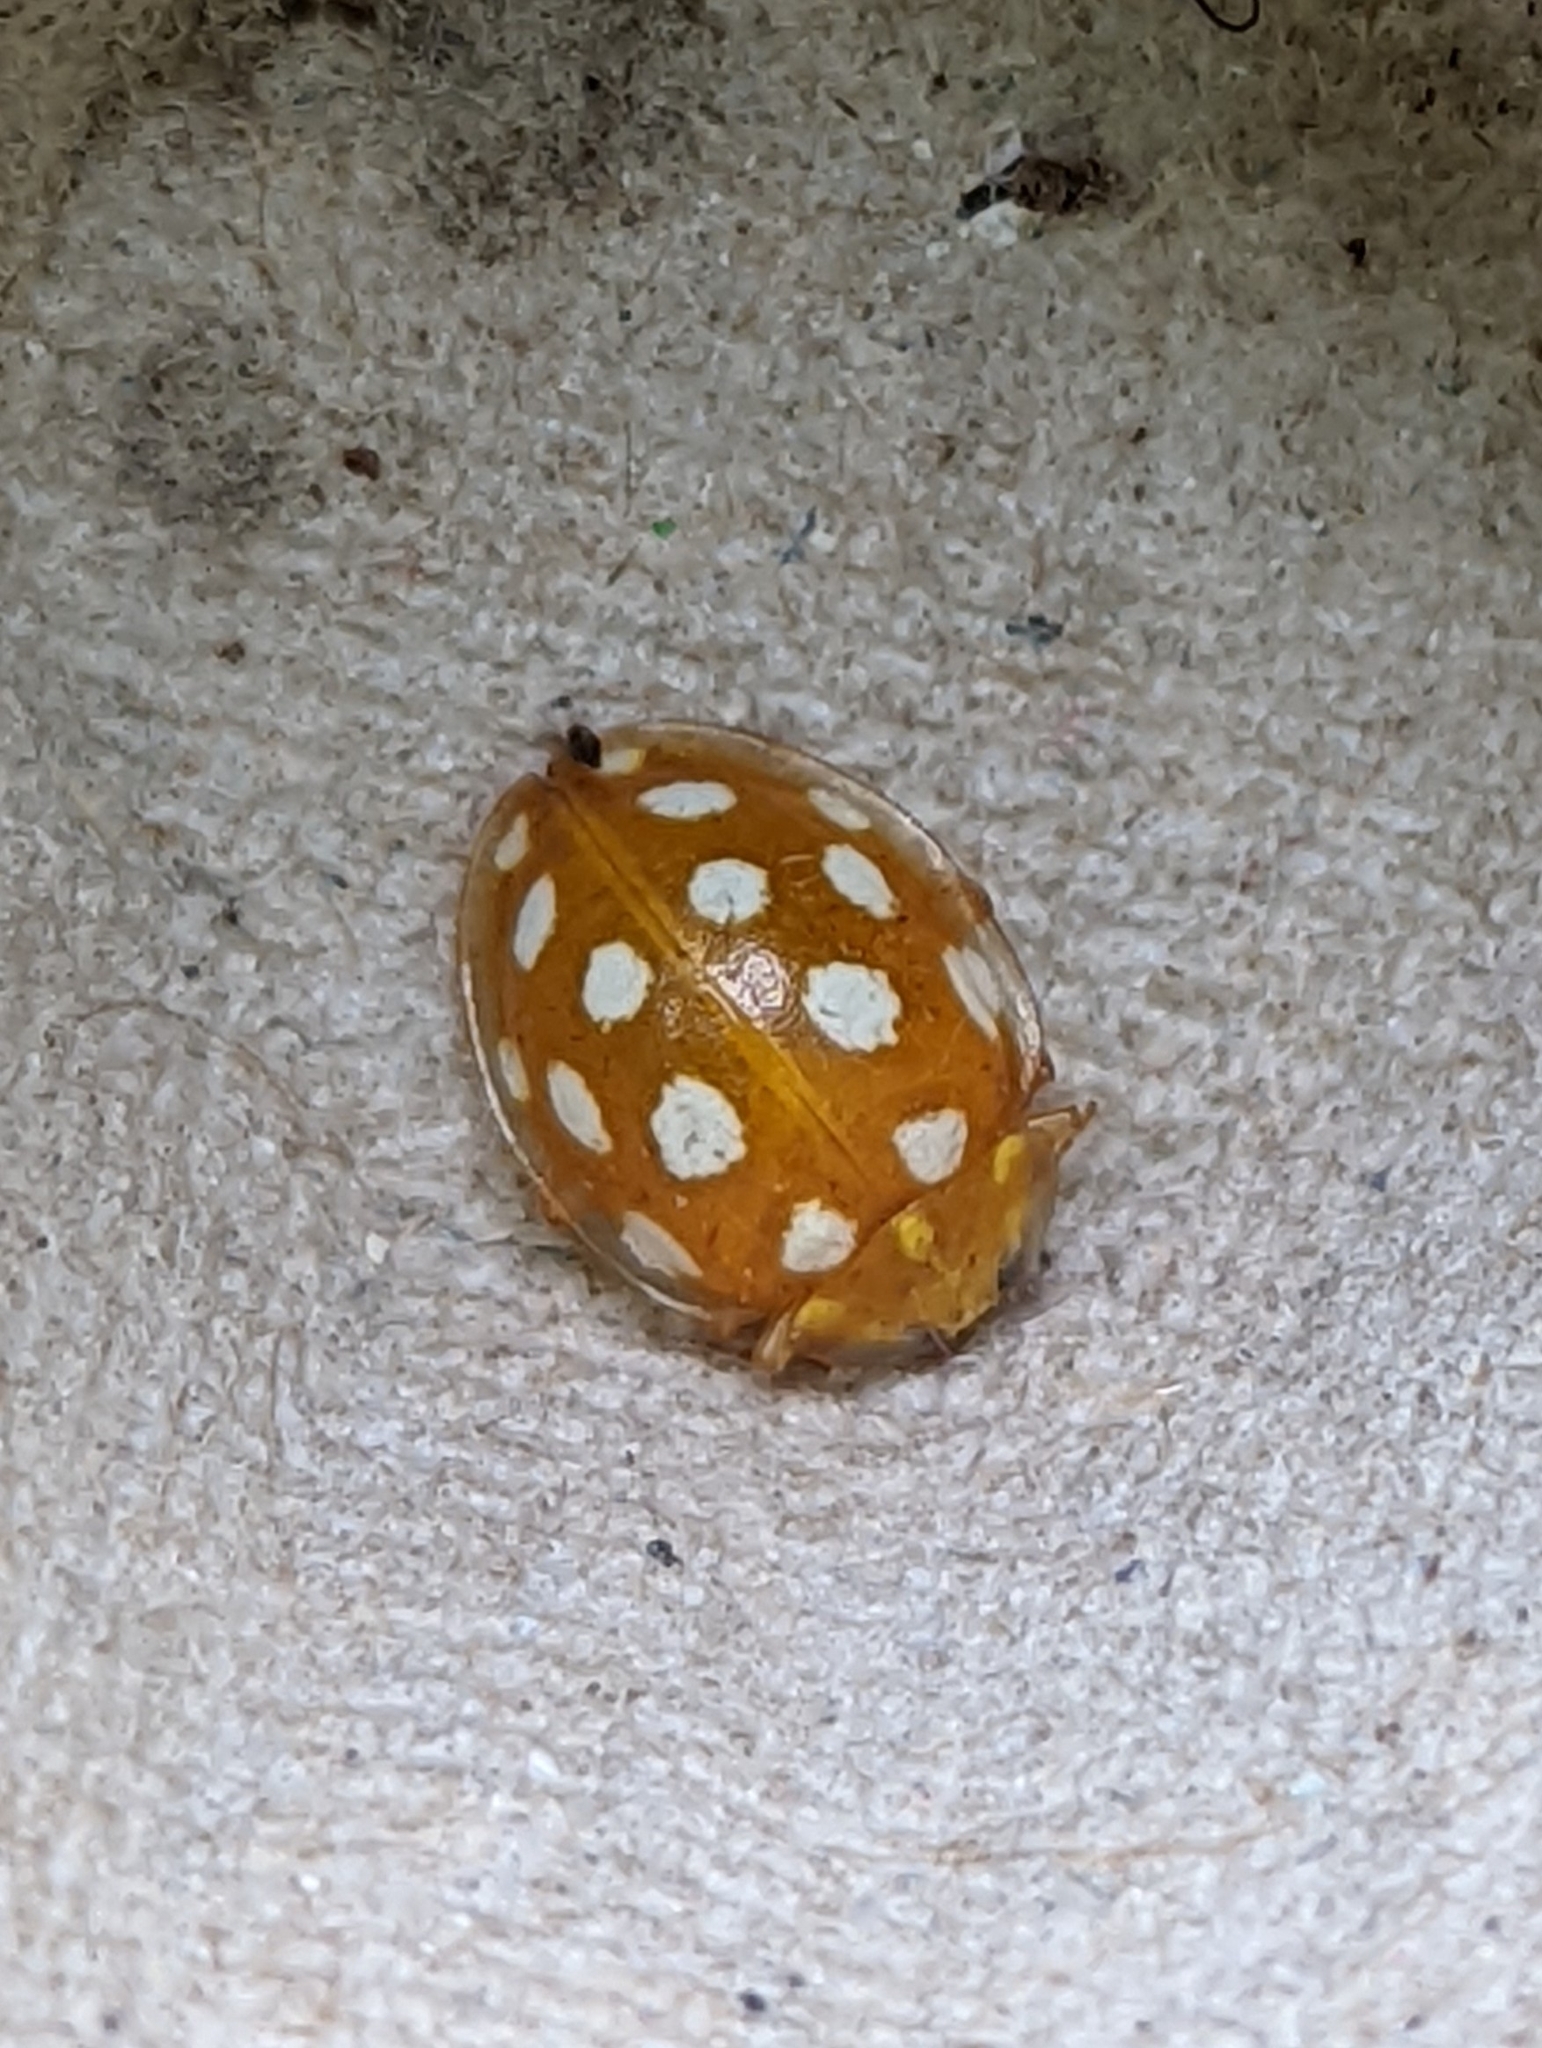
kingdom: Animalia
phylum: Arthropoda
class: Insecta
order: Coleoptera
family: Coccinellidae
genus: Halyzia
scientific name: Halyzia sedecimguttata
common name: Orange ladybird
